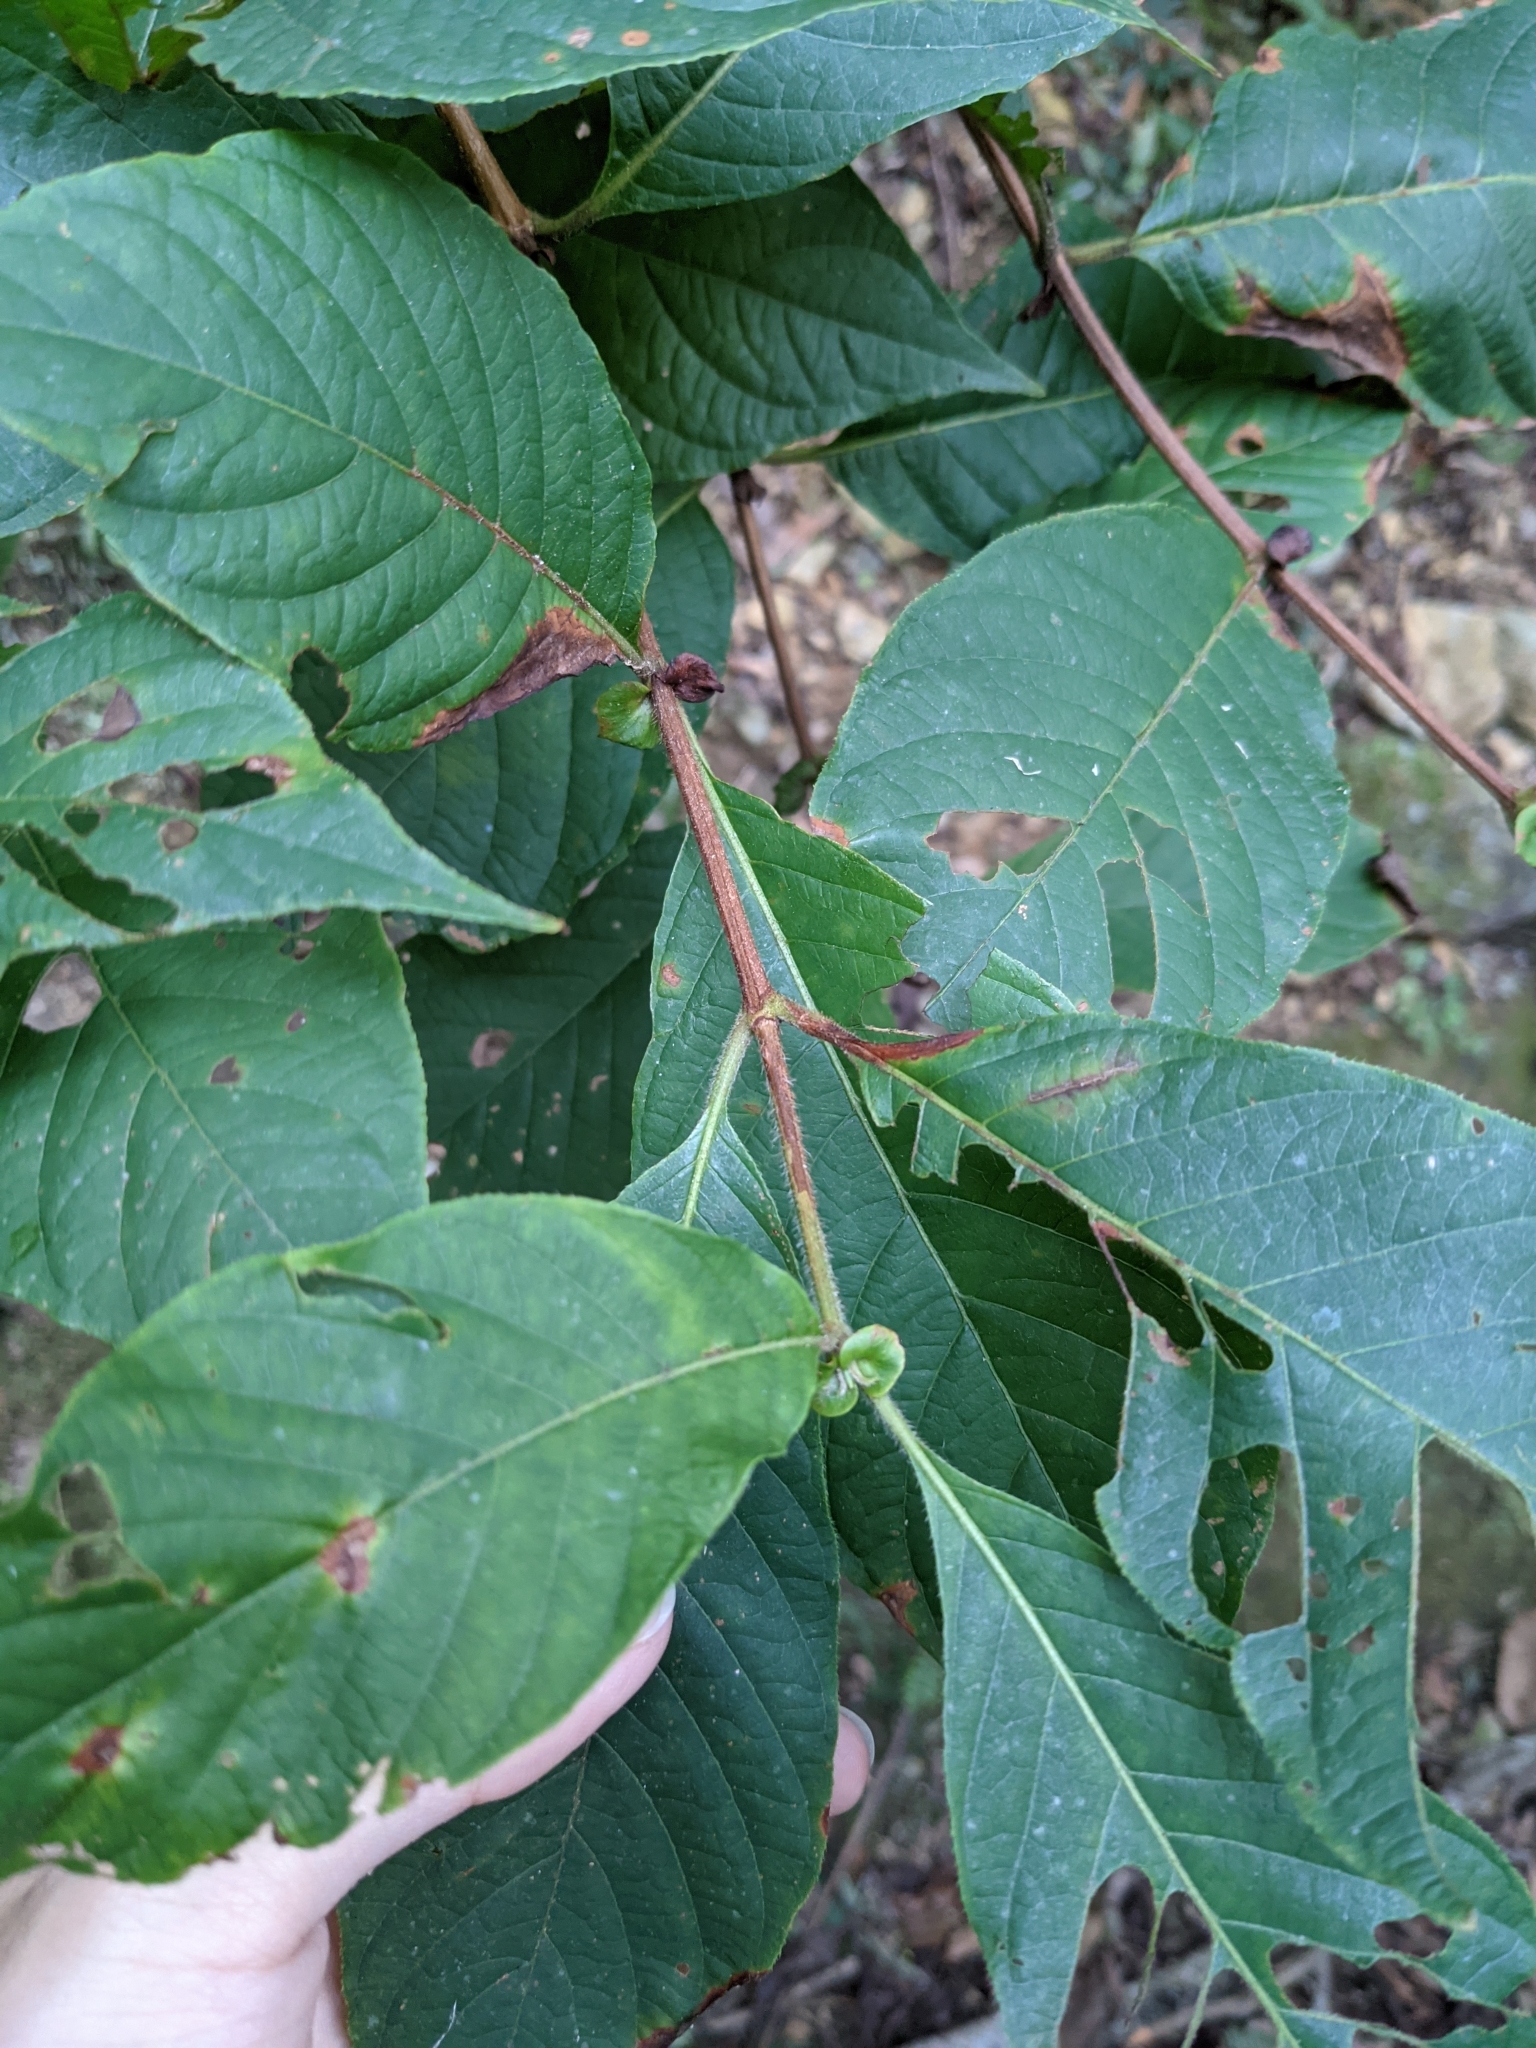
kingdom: Plantae
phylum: Tracheophyta
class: Magnoliopsida
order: Gentianales
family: Rubiaceae
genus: Wendlandia
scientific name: Wendlandia uvariifolia
